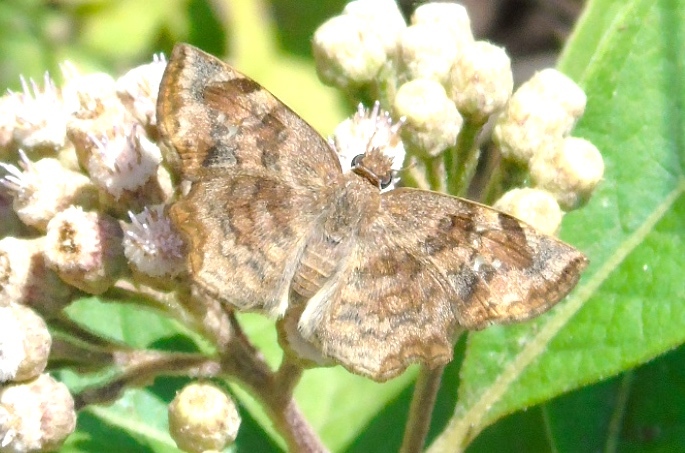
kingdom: Animalia
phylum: Arthropoda
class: Insecta
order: Lepidoptera
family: Hesperiidae
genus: Antigonus
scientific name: Antigonus erosus
